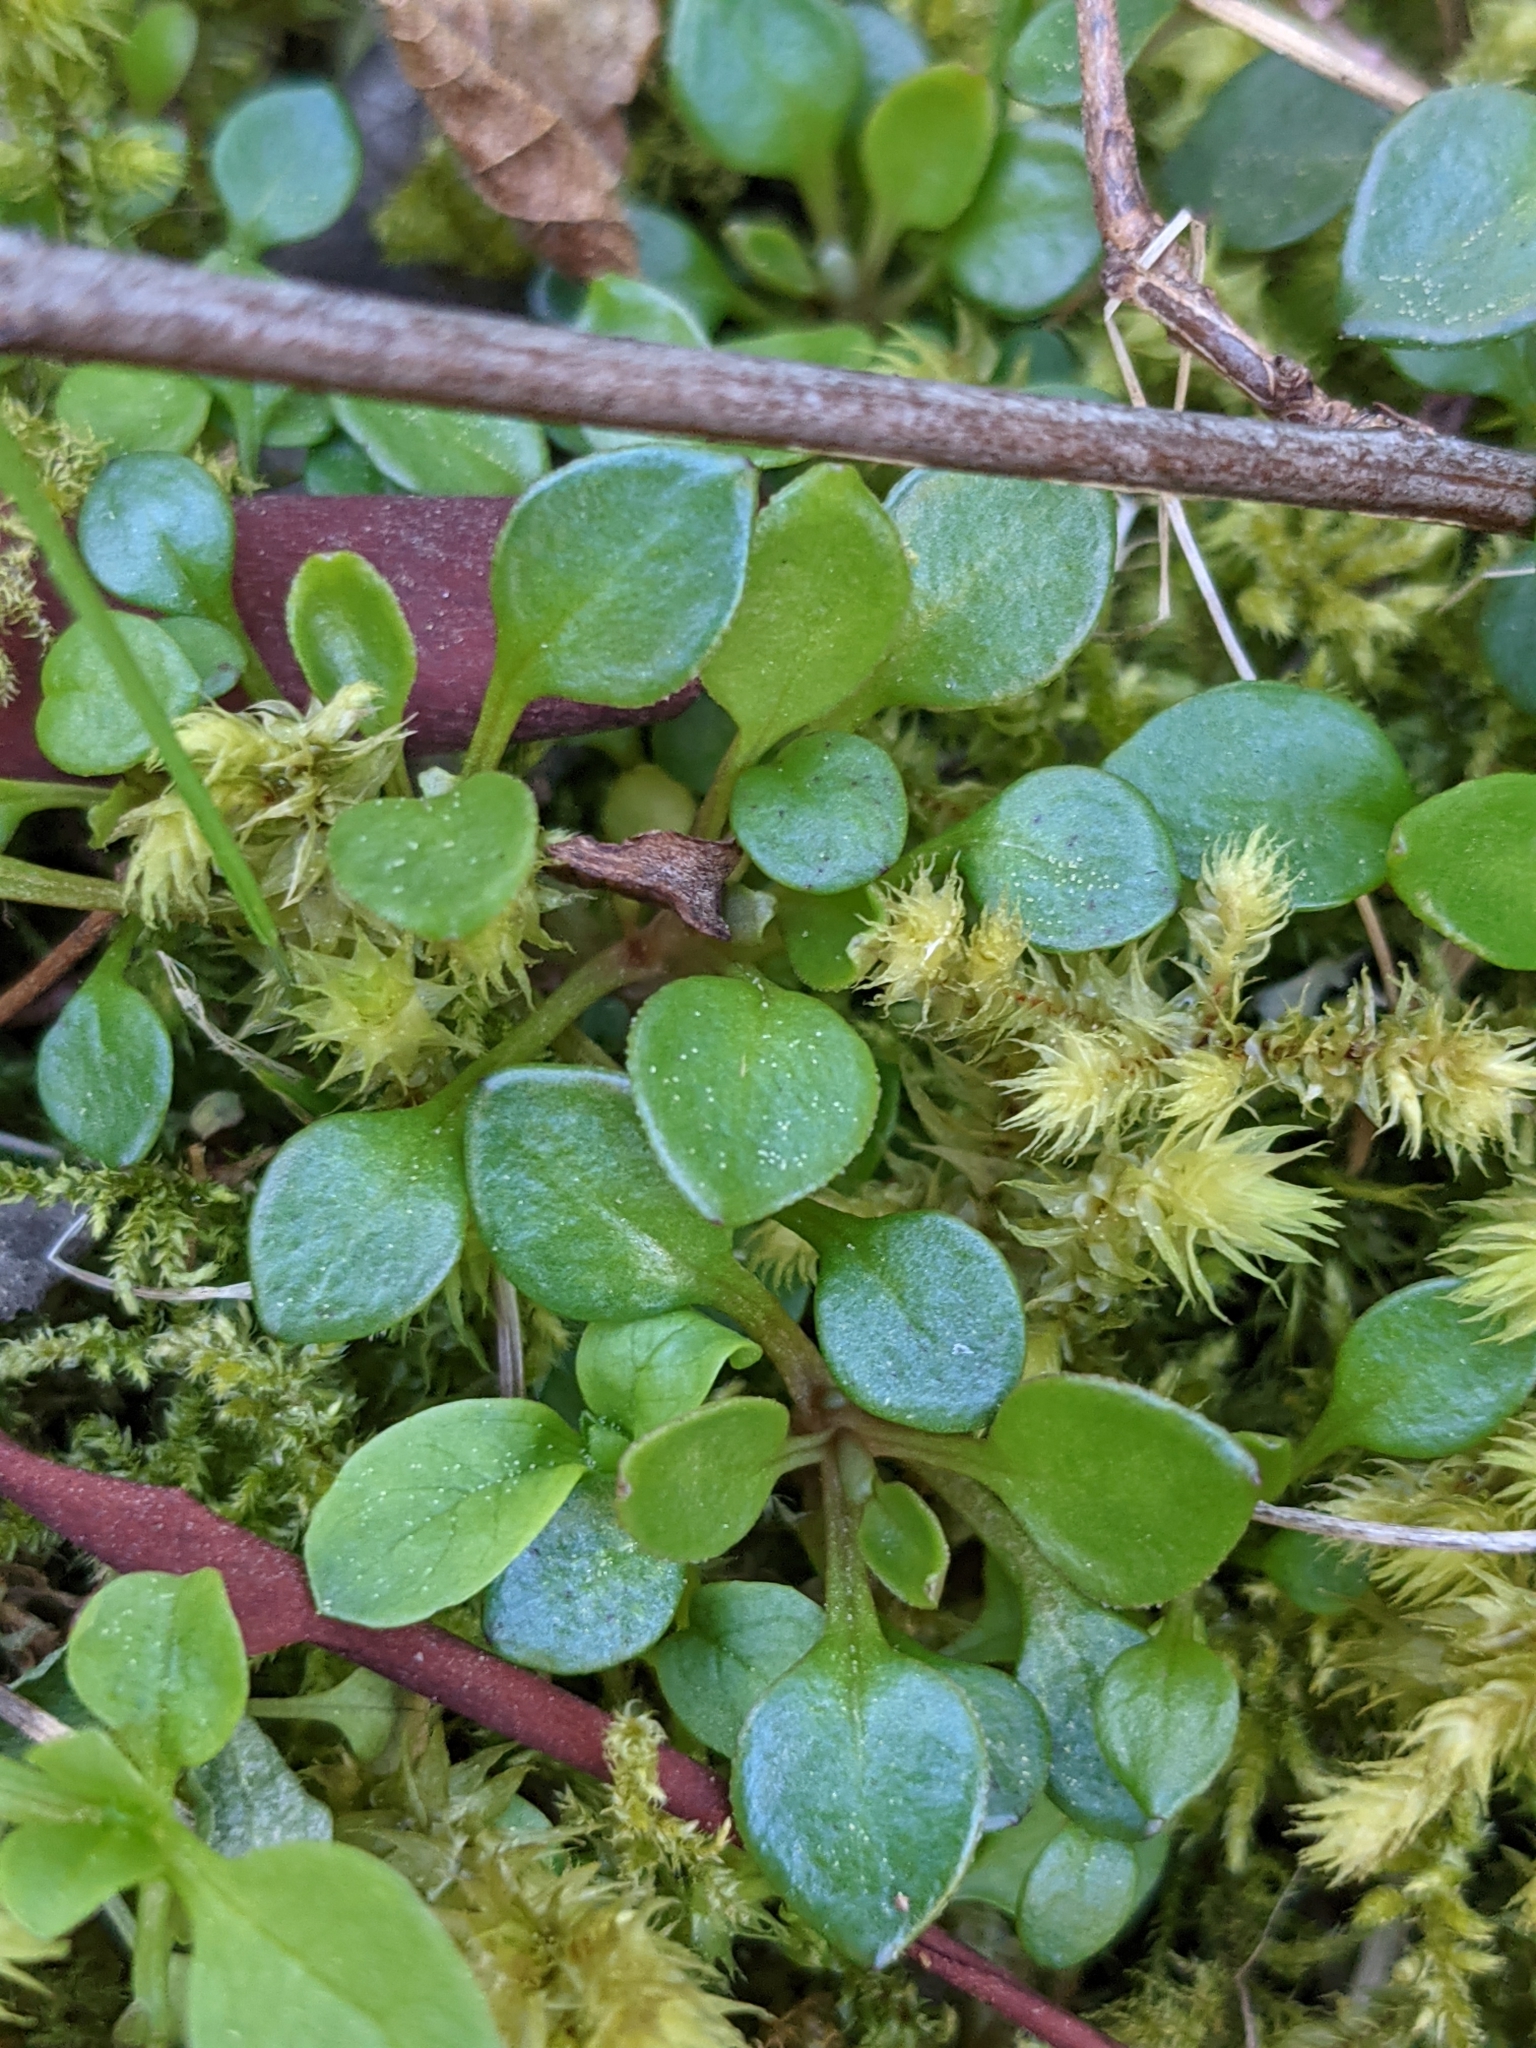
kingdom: Plantae
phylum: Tracheophyta
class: Magnoliopsida
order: Caryophyllales
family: Montiaceae
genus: Montia
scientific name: Montia parvifolia
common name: Small-leaved blinks
